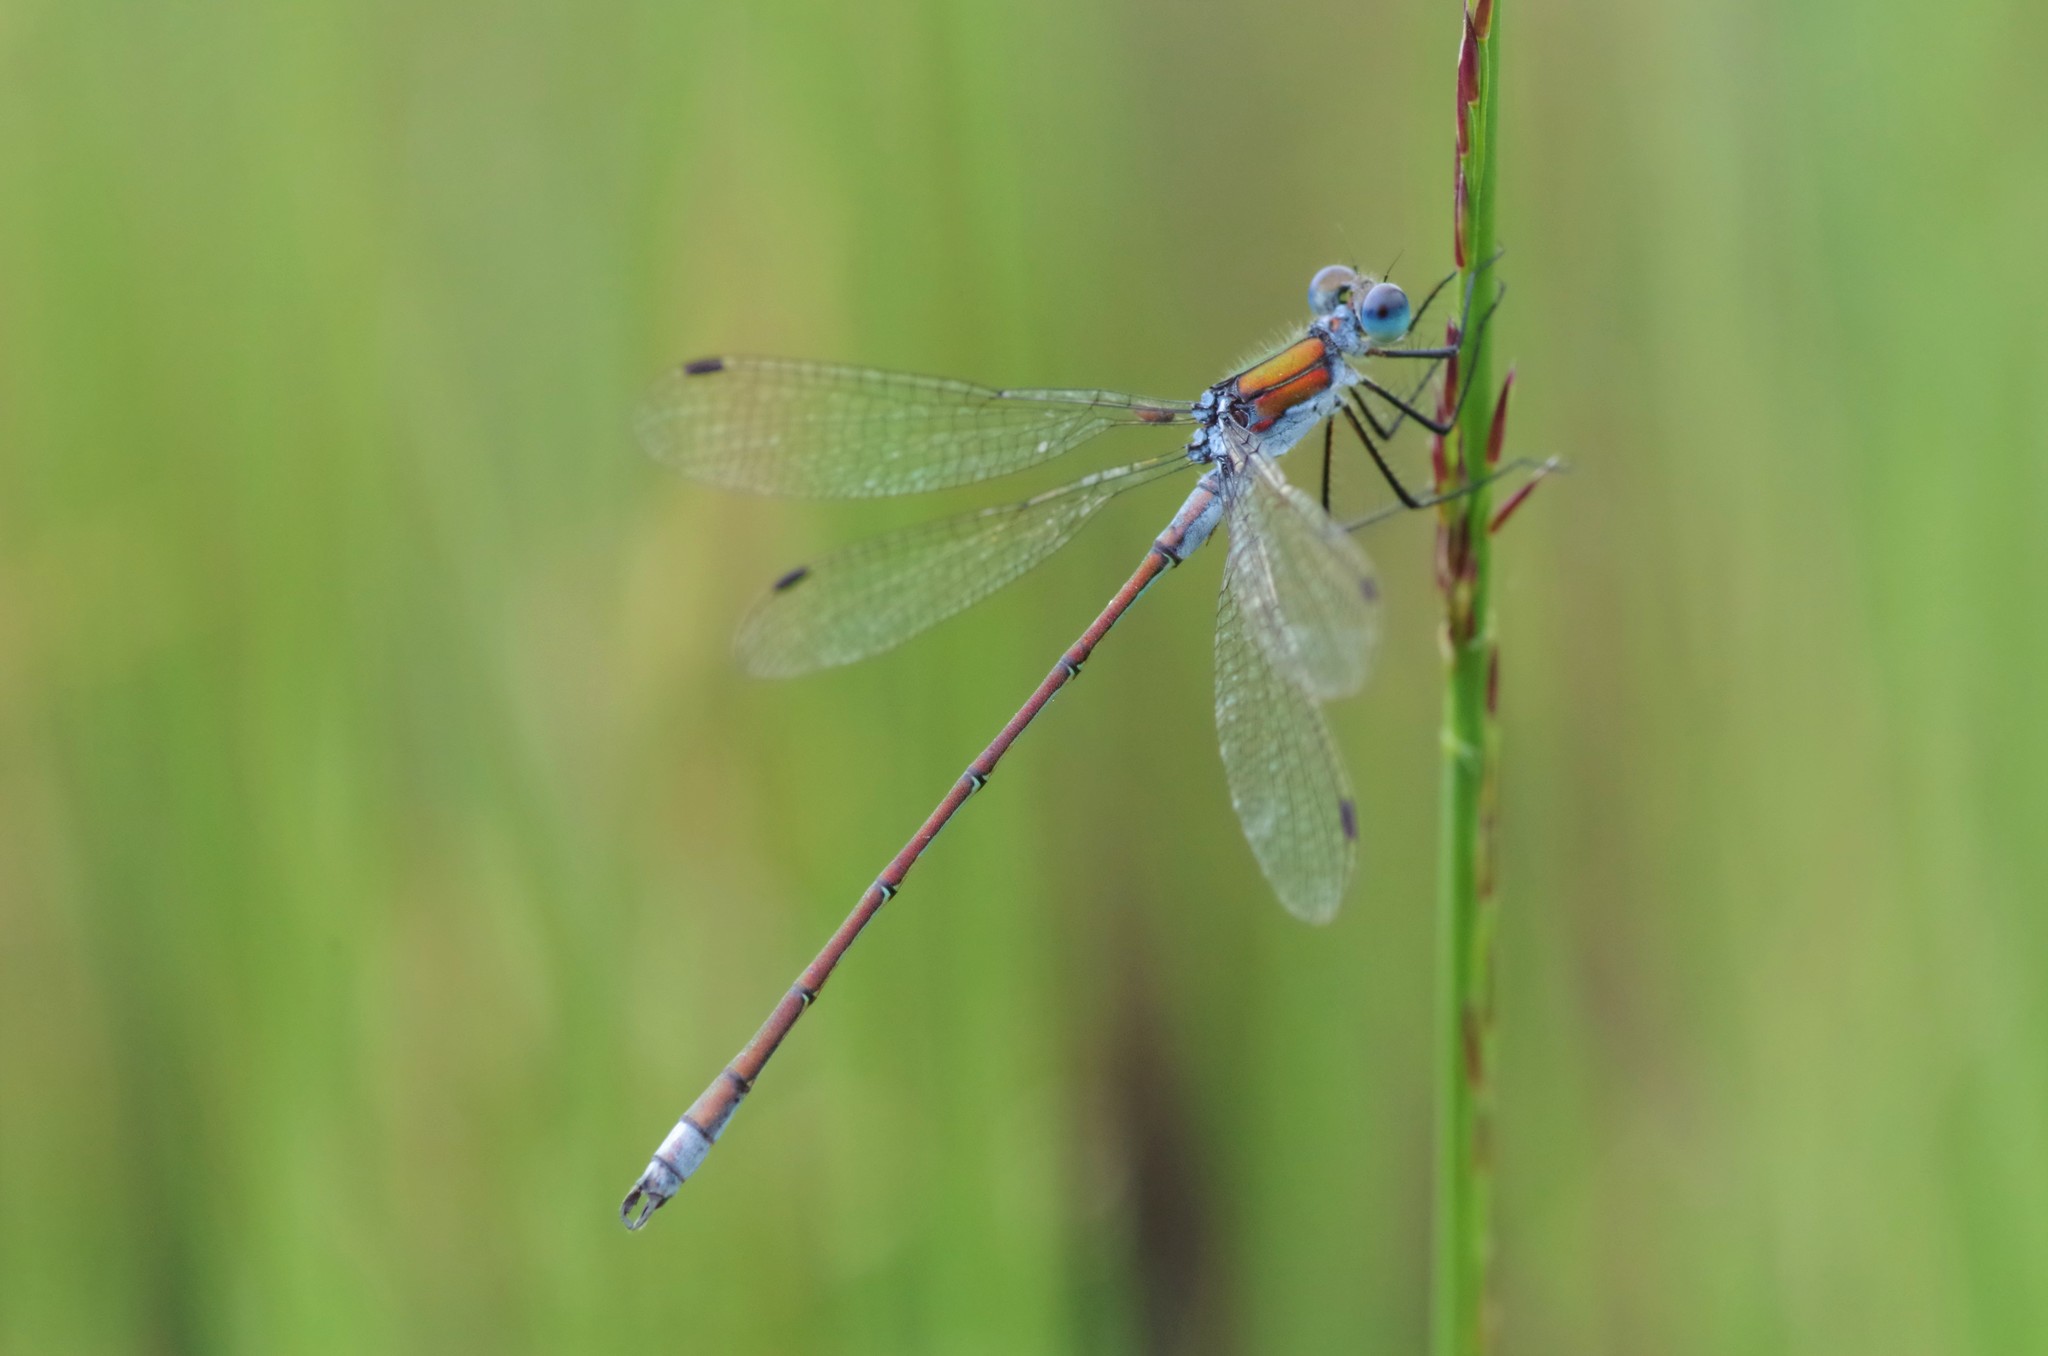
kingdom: Animalia
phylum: Arthropoda
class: Insecta
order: Odonata
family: Lestidae
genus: Lestes
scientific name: Lestes sponsa
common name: Common spreadwing
